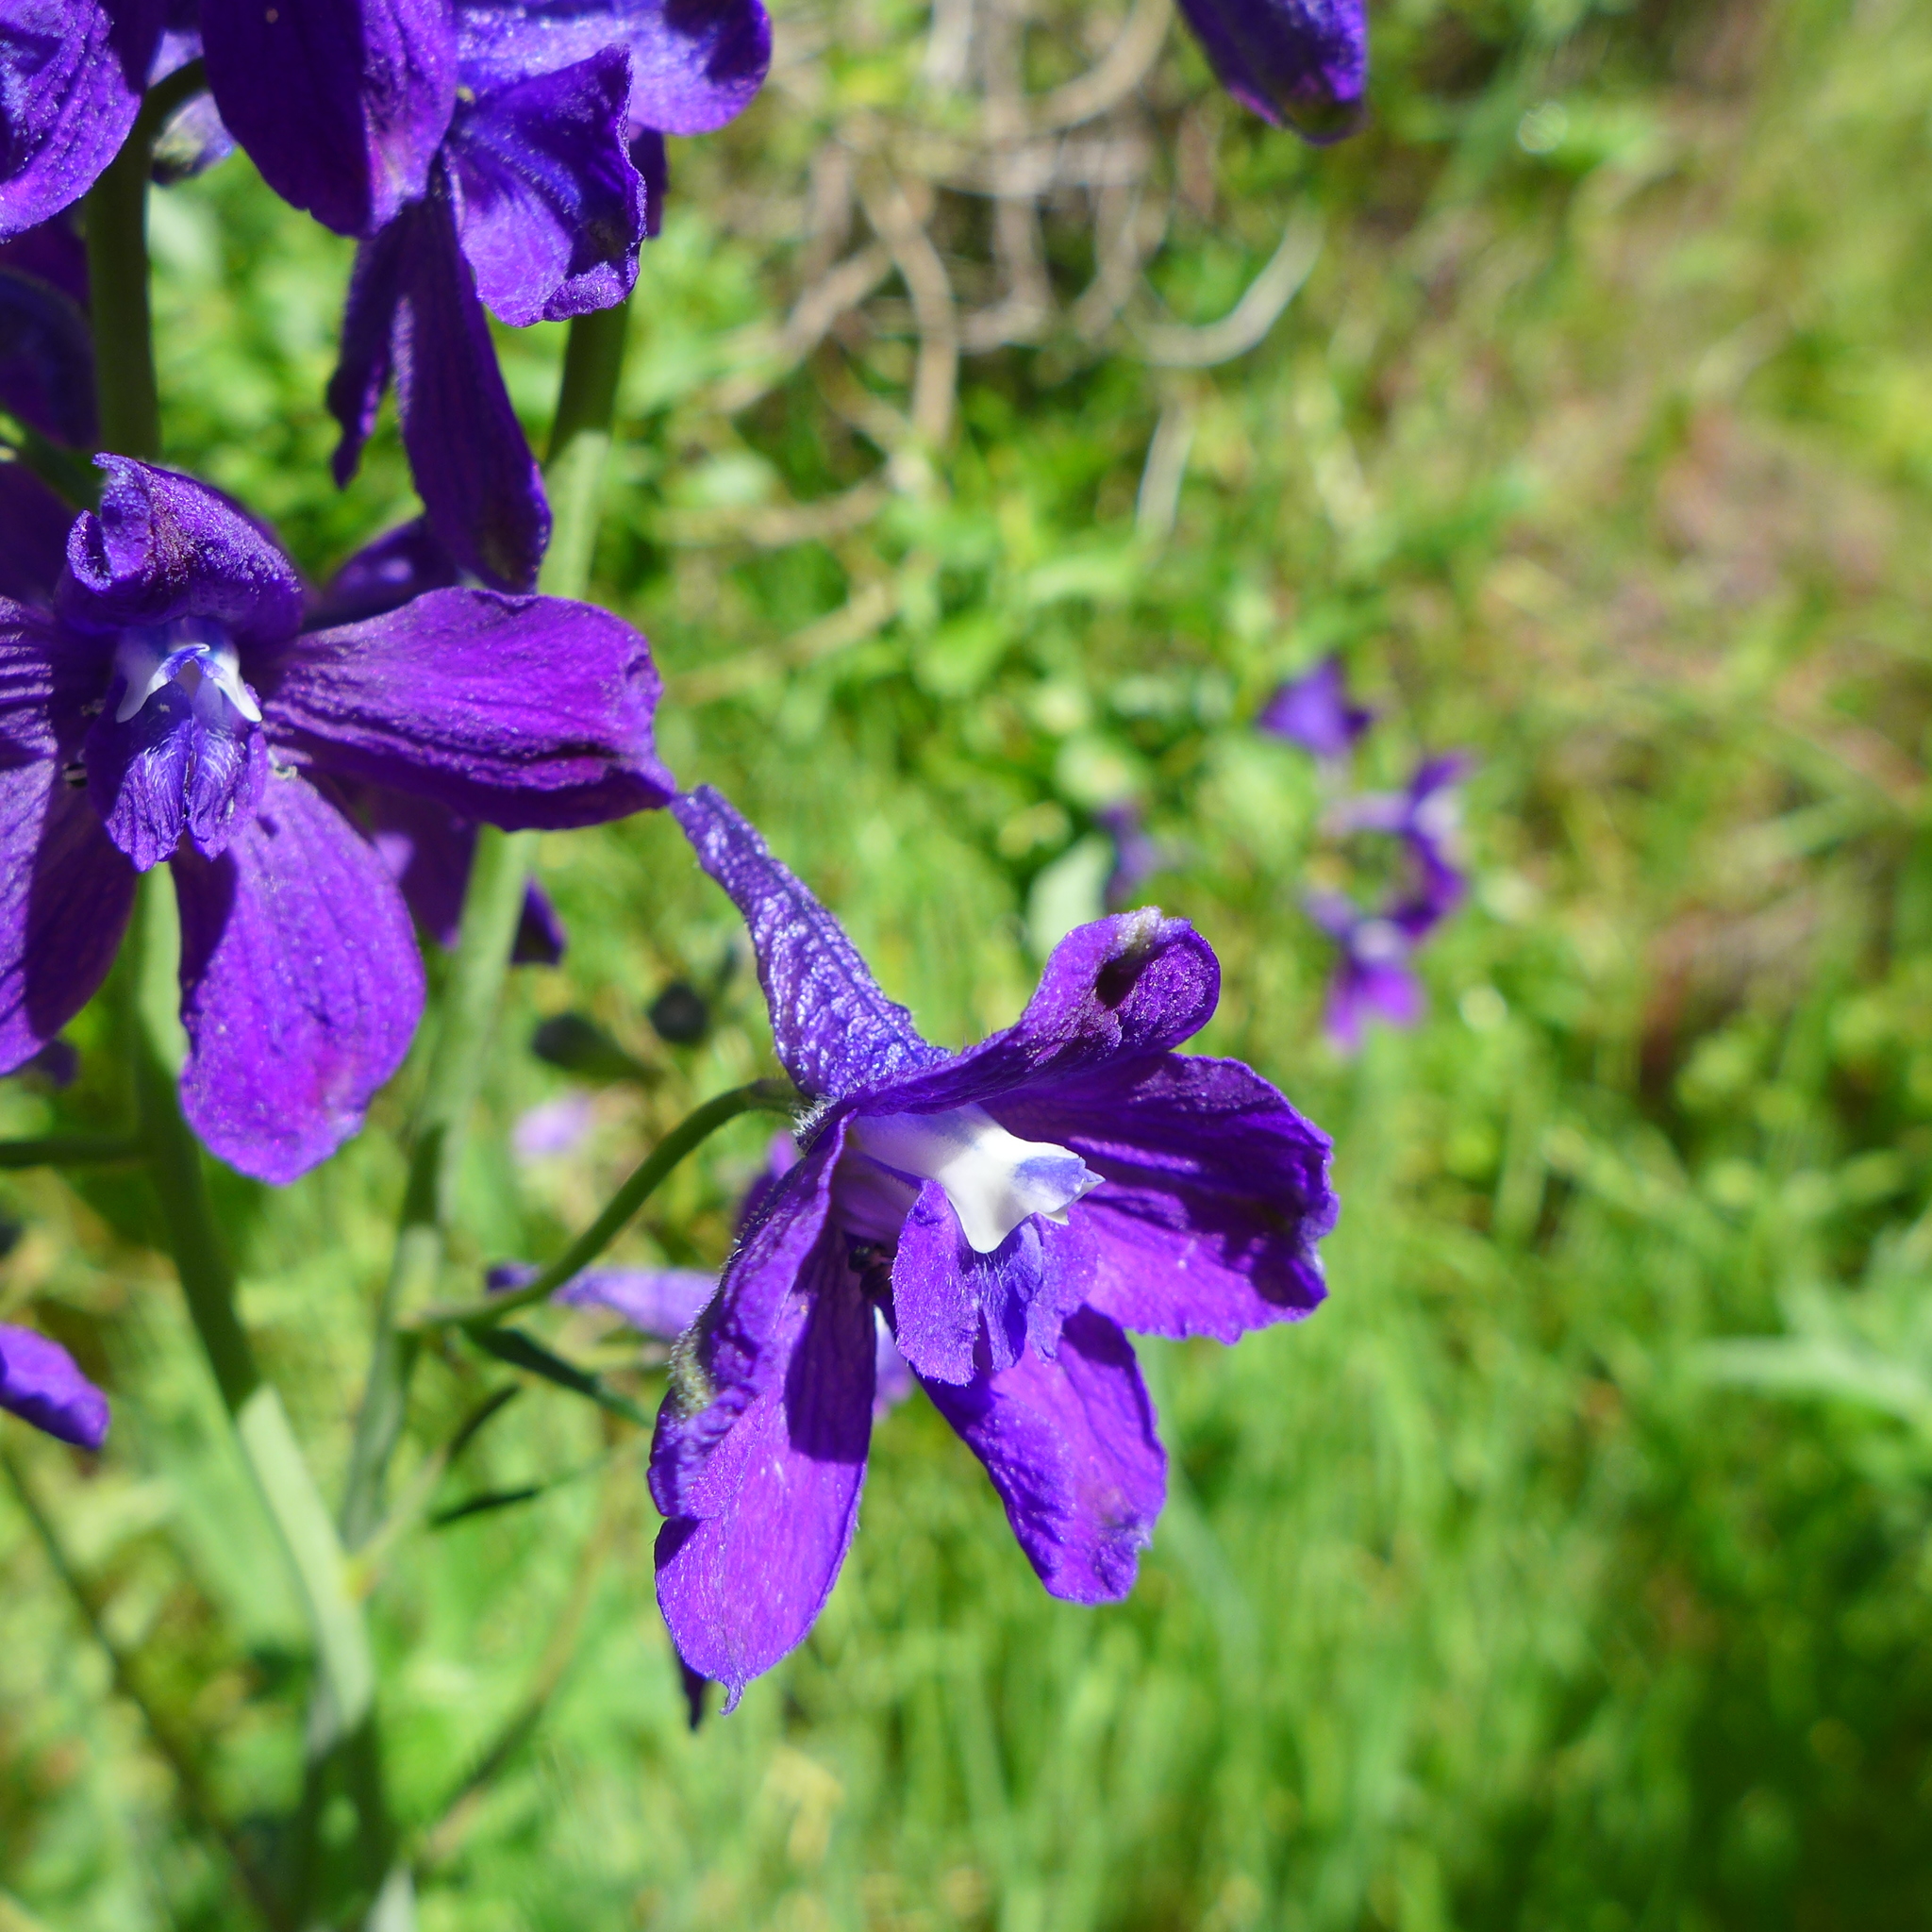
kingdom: Plantae
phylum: Tracheophyta
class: Magnoliopsida
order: Ranunculales
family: Ranunculaceae
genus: Delphinium
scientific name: Delphinium hutchinsoniae
